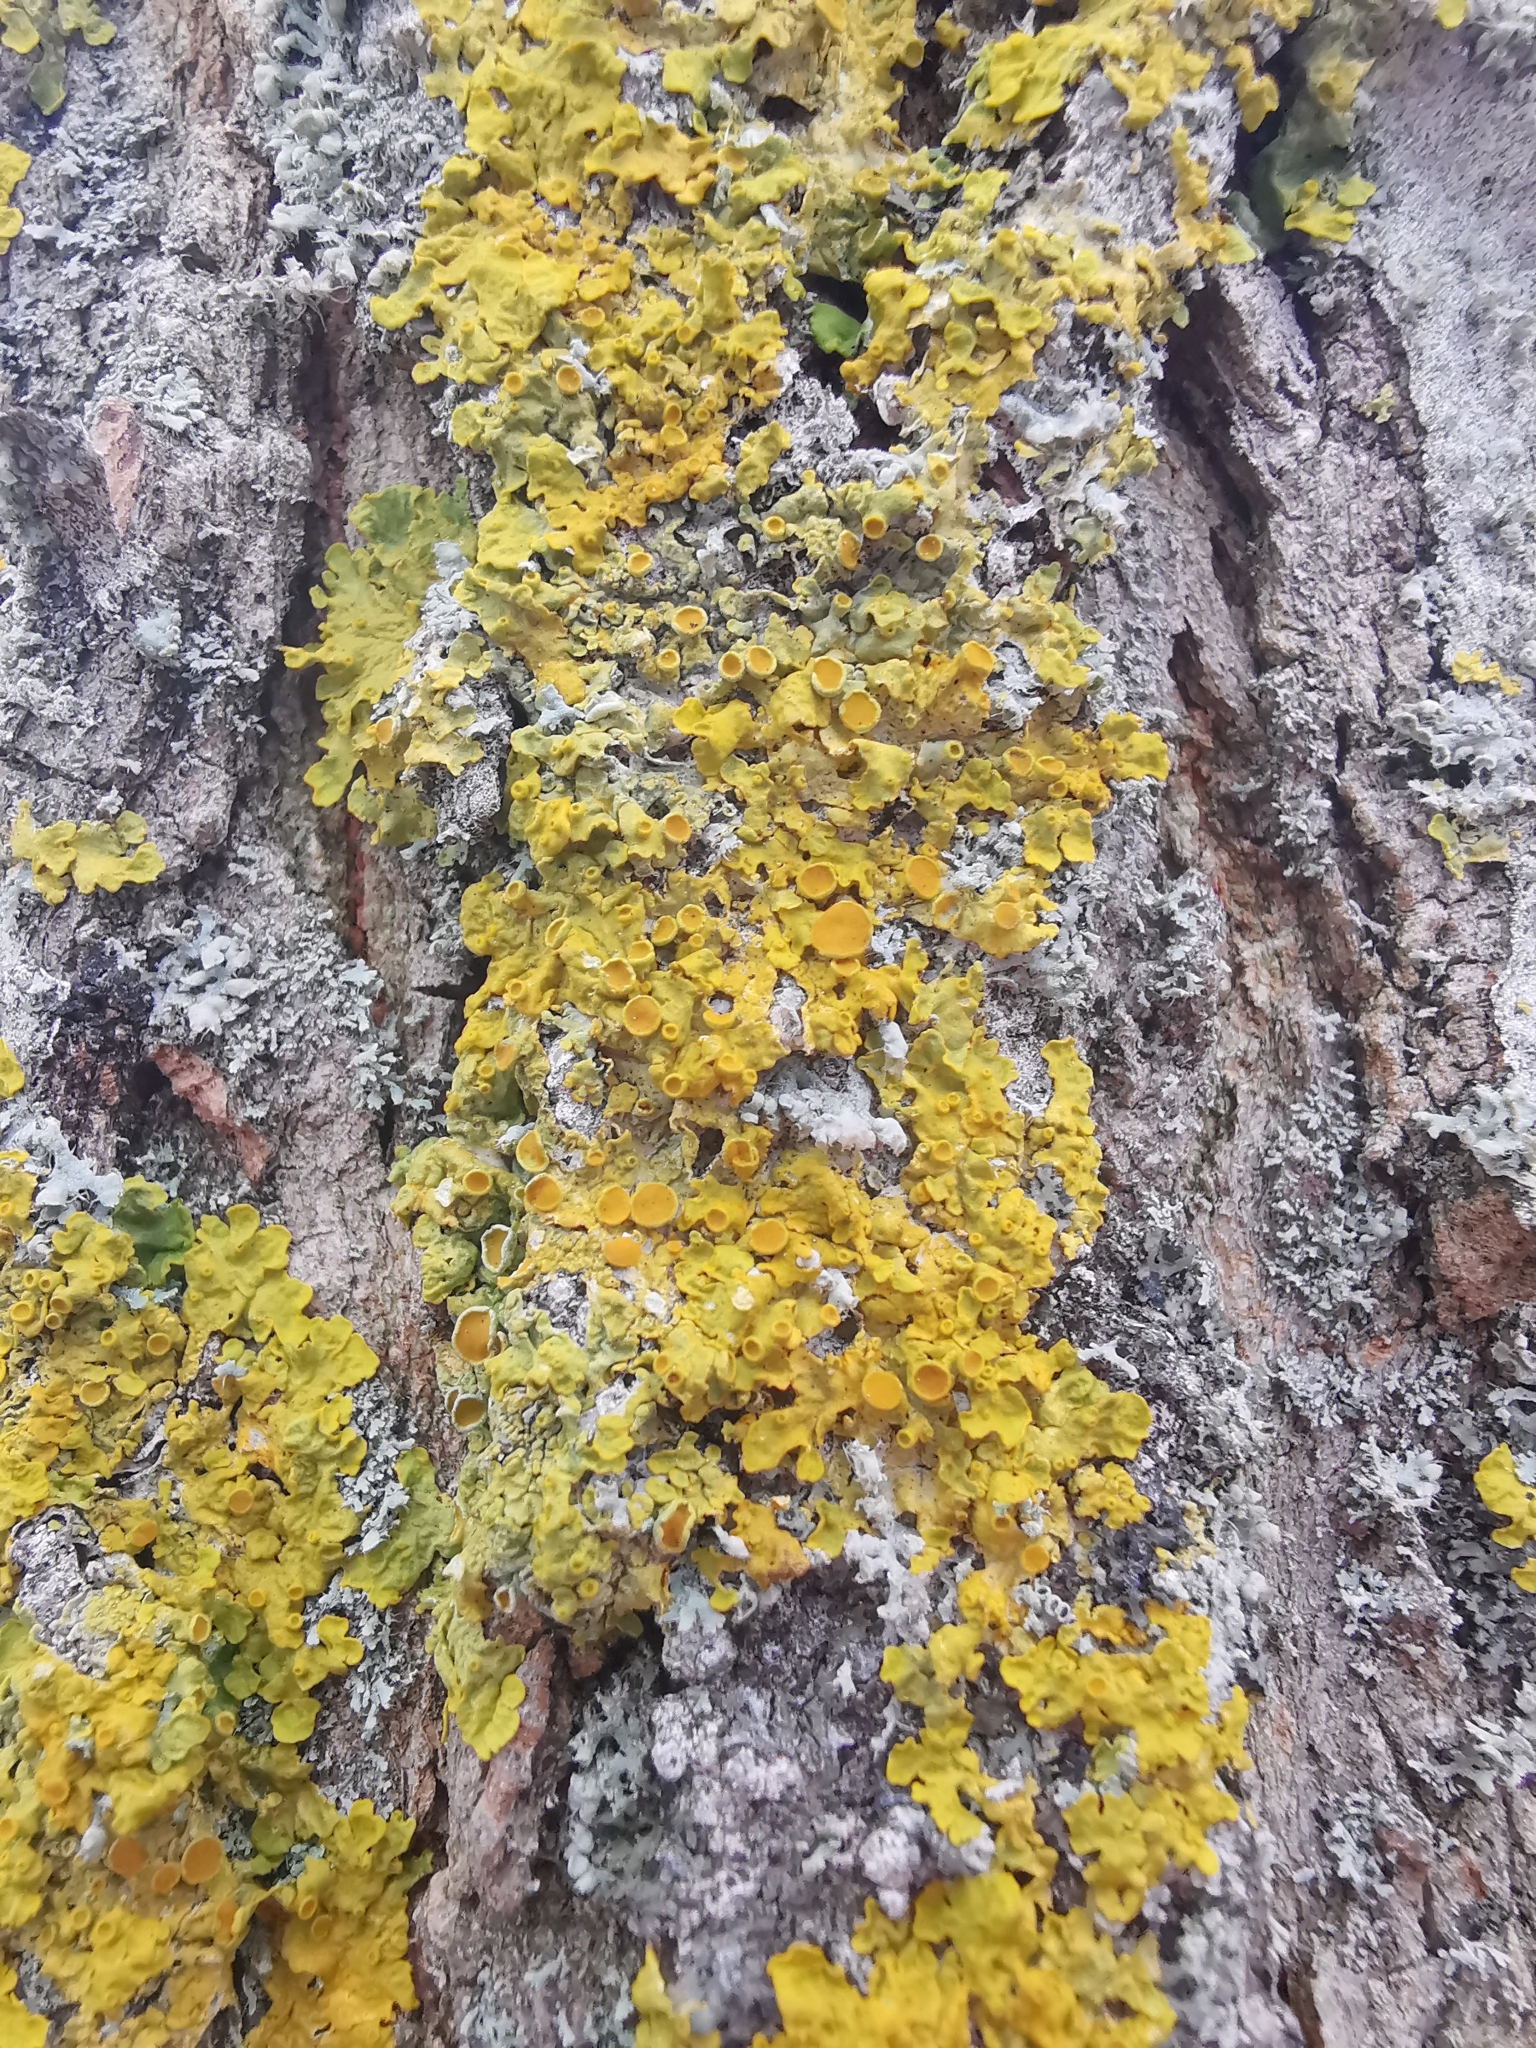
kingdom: Fungi
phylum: Ascomycota
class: Lecanoromycetes
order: Teloschistales
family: Teloschistaceae
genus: Xanthoria
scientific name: Xanthoria parietina
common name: Common orange lichen
